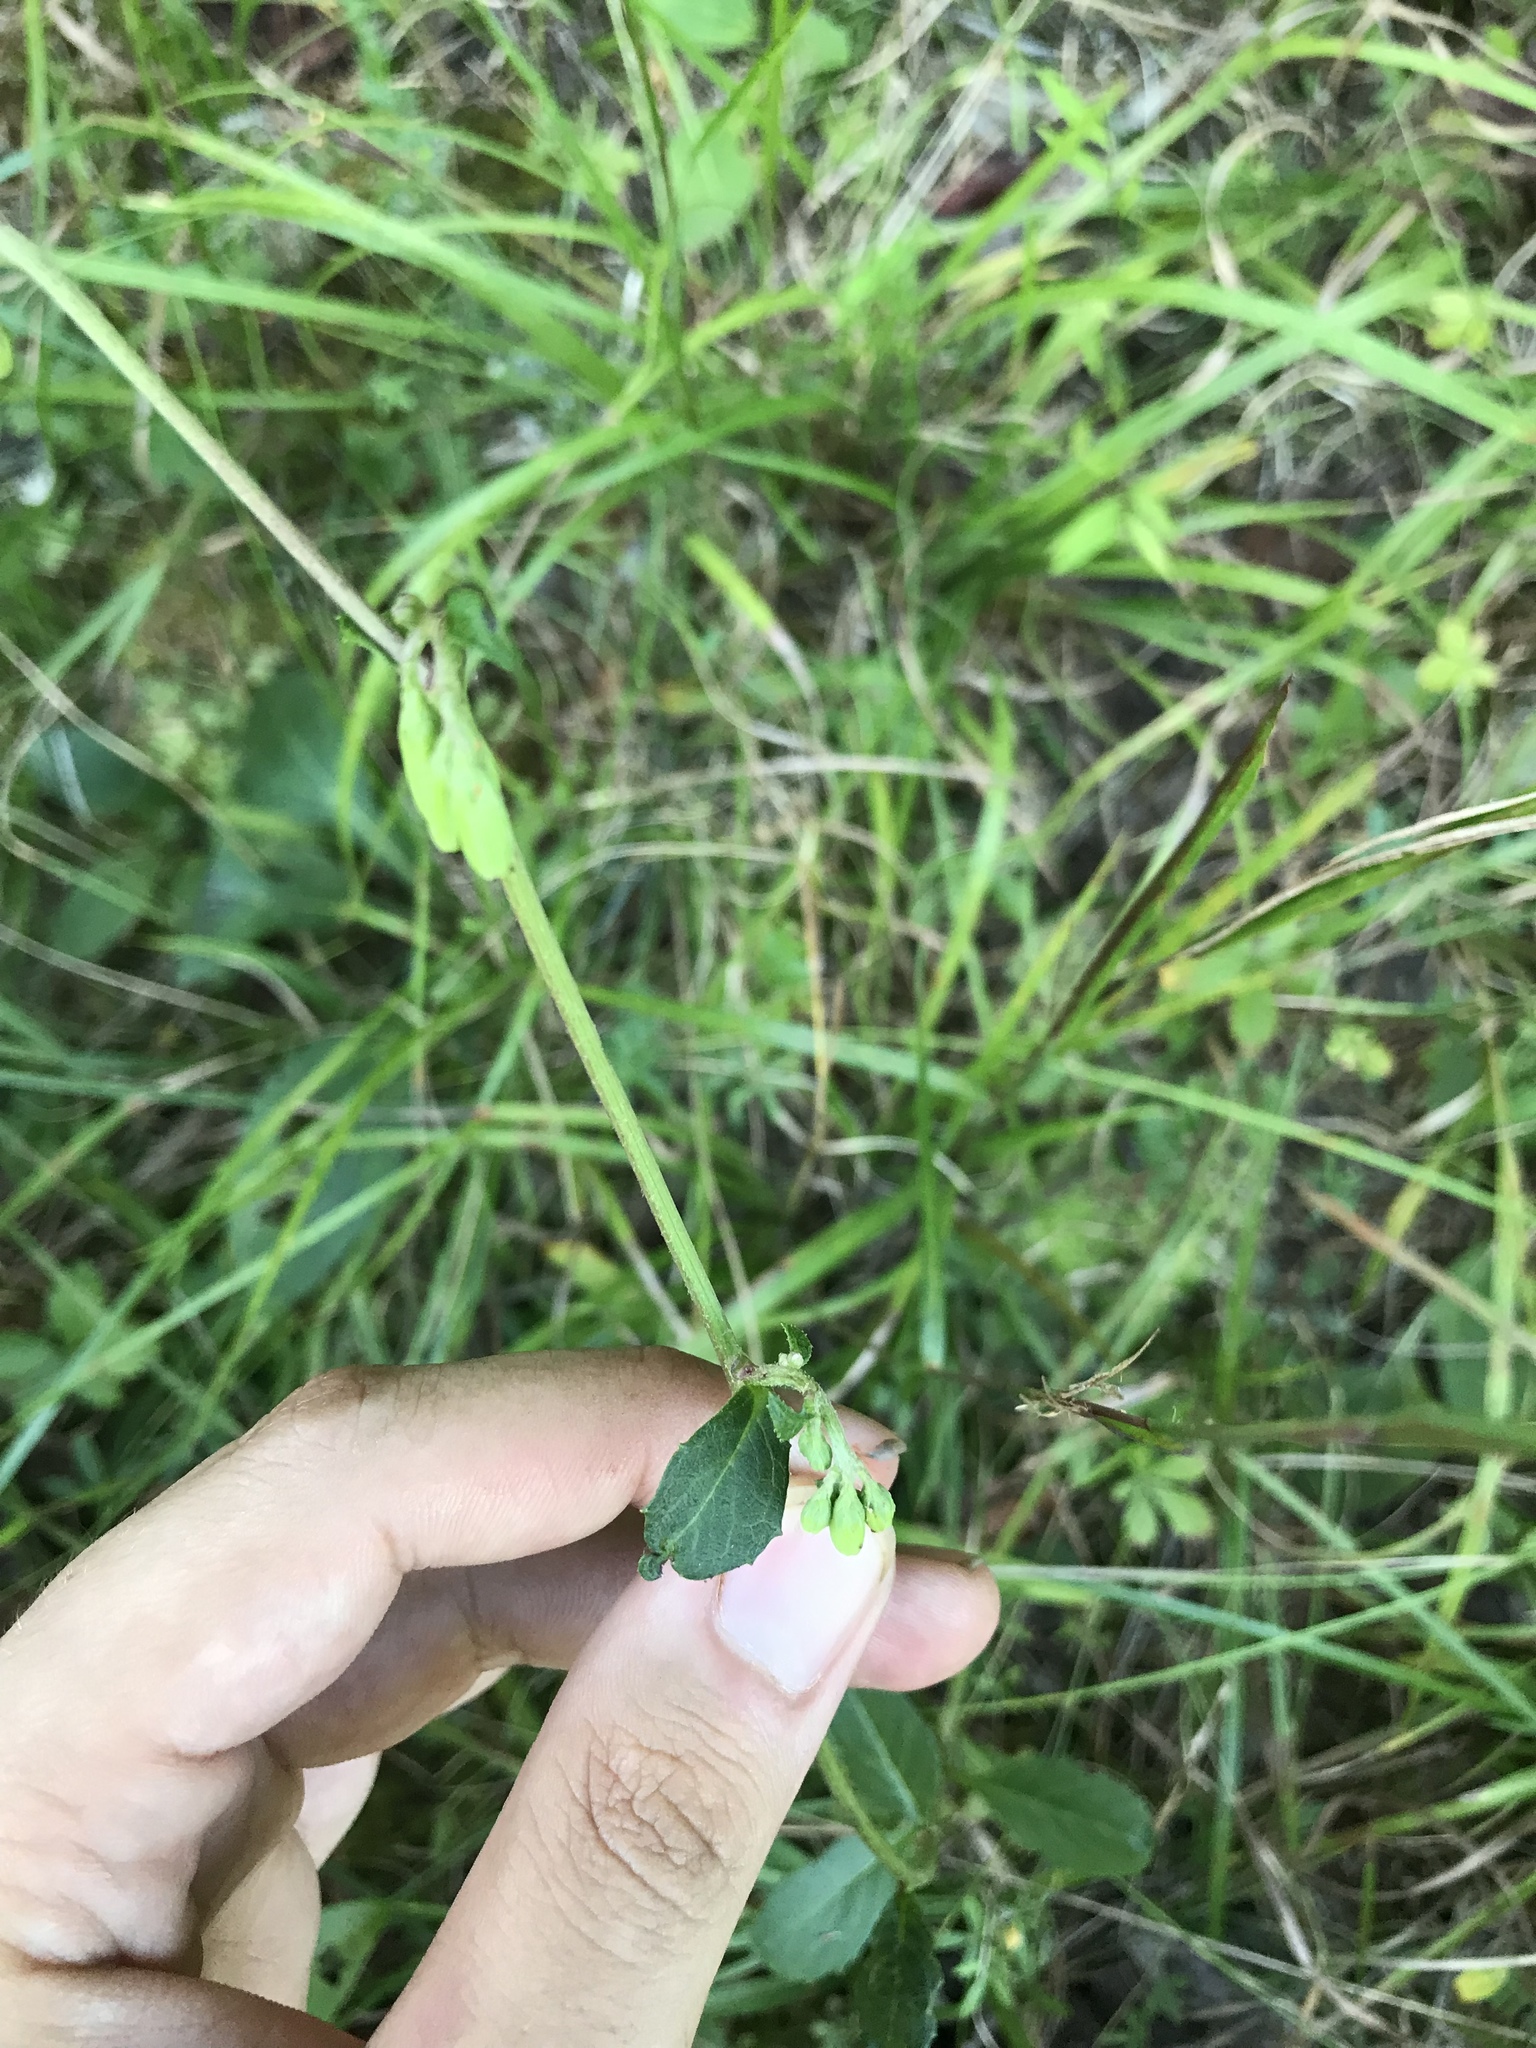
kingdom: Plantae
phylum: Tracheophyta
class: Magnoliopsida
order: Asterales
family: Asteraceae
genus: Nabalus
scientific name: Nabalus serpentarius
